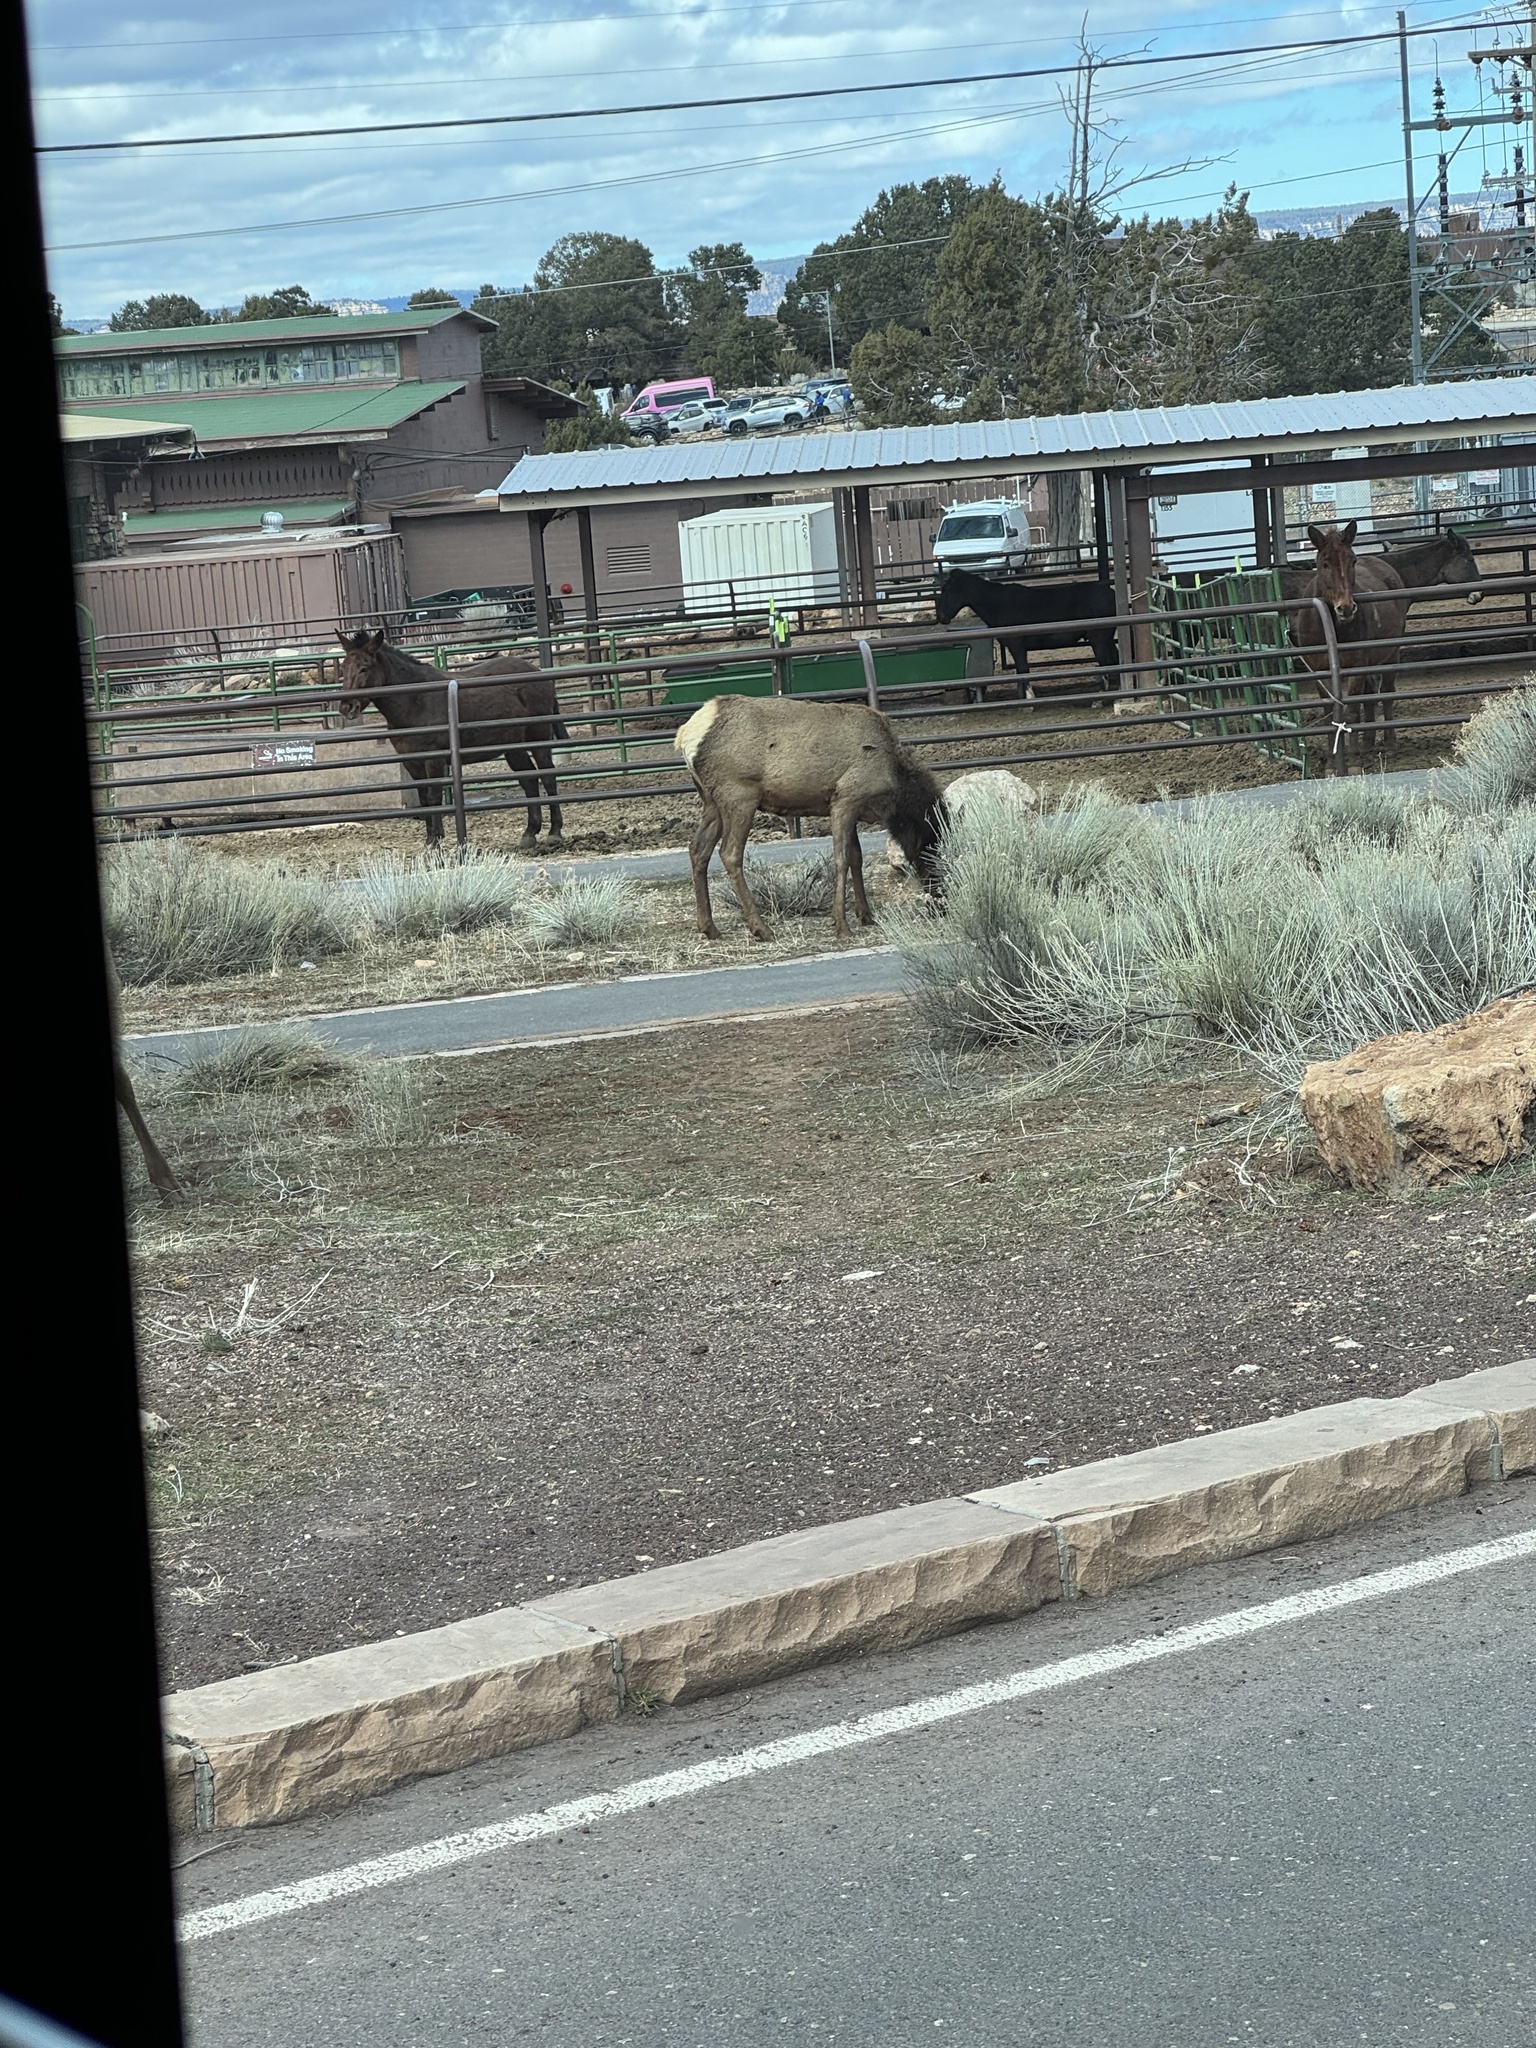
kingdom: Animalia
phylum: Chordata
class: Mammalia
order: Artiodactyla
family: Cervidae
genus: Cervus
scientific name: Cervus elaphus
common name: Red deer
